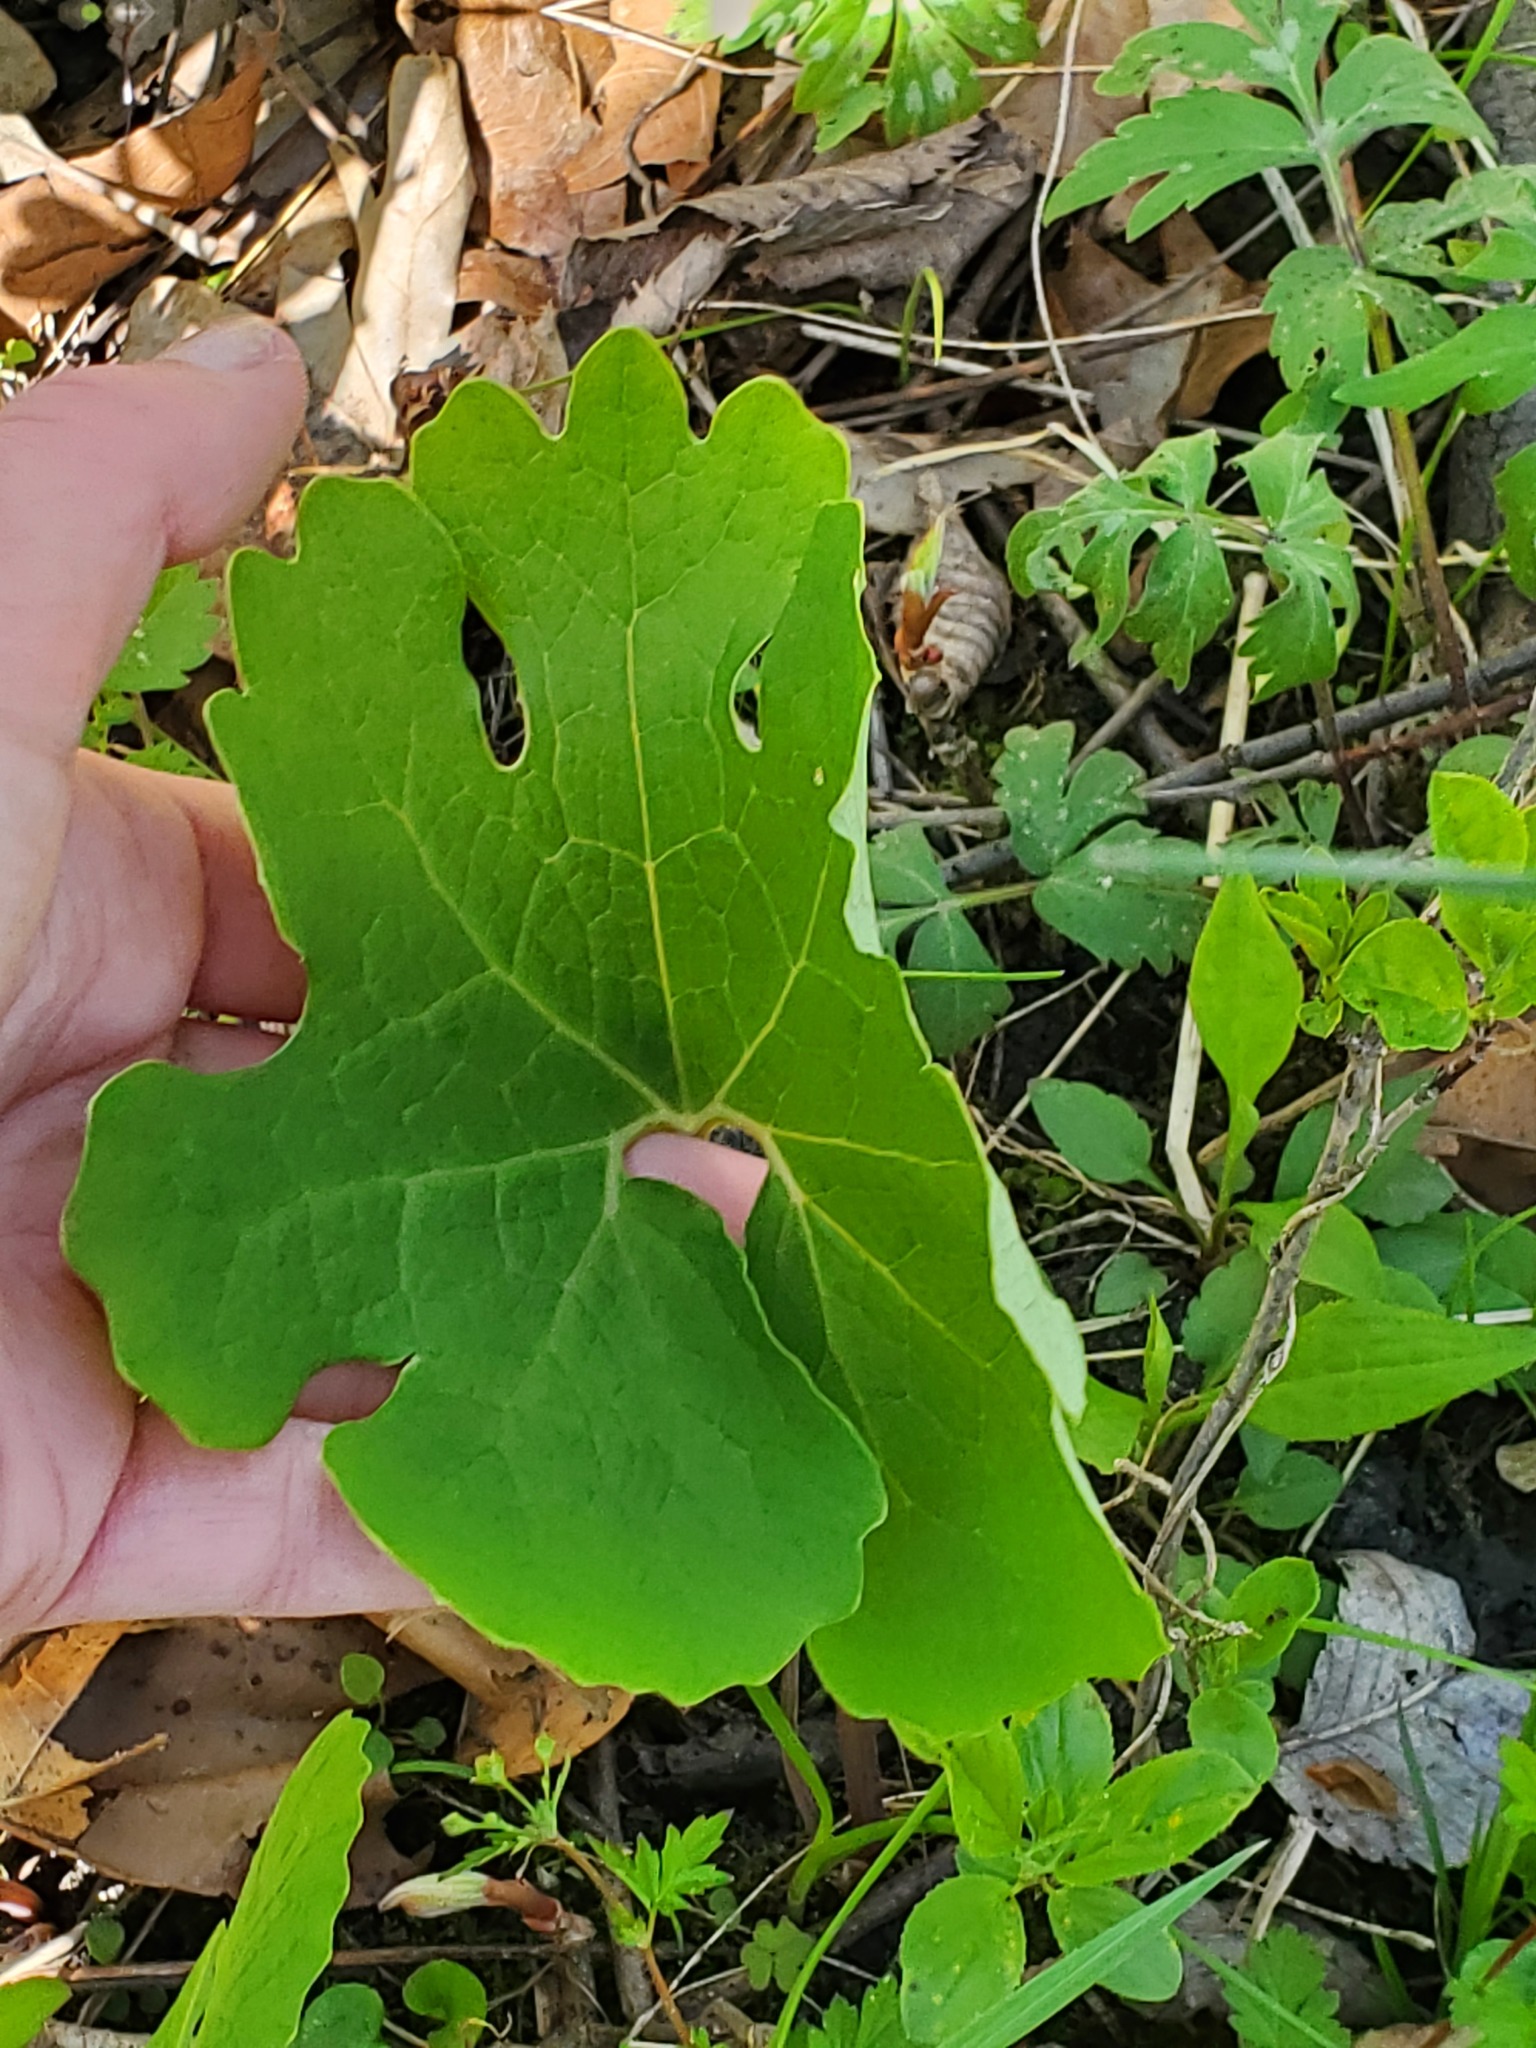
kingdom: Plantae
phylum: Tracheophyta
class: Magnoliopsida
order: Ranunculales
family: Papaveraceae
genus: Sanguinaria
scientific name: Sanguinaria canadensis
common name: Bloodroot
